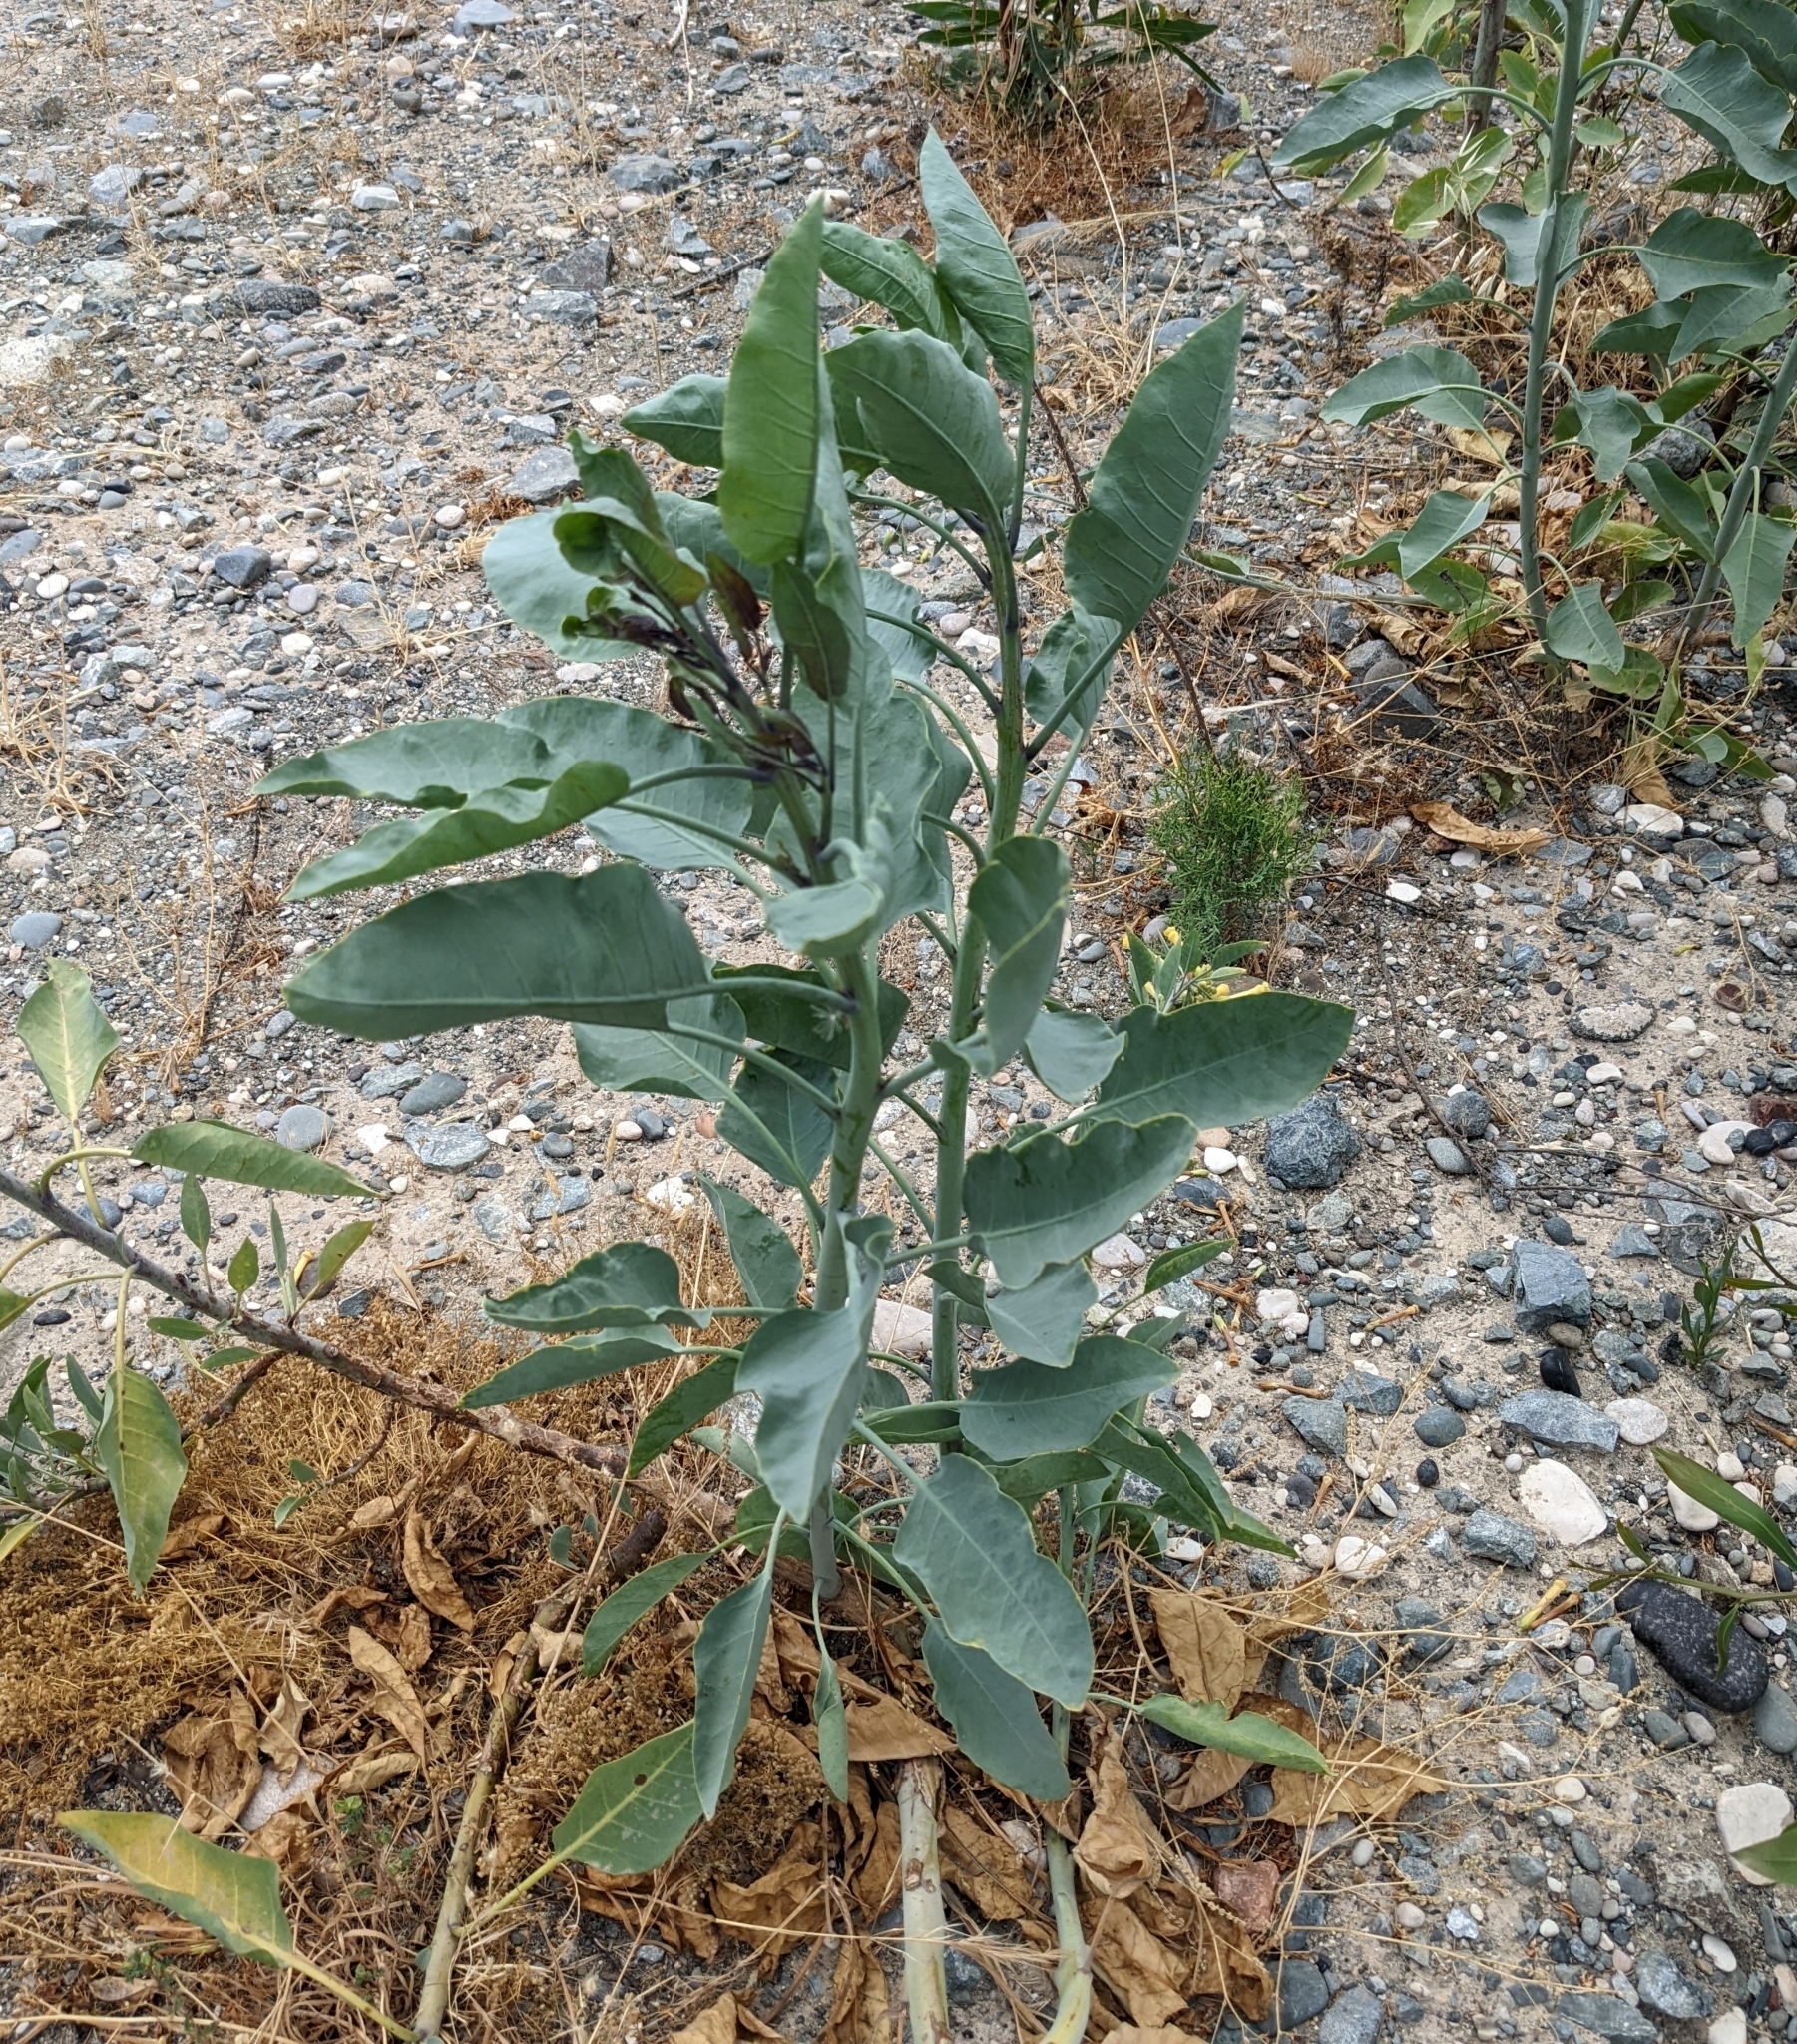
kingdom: Plantae
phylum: Tracheophyta
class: Magnoliopsida
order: Solanales
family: Solanaceae
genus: Nicotiana
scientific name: Nicotiana glauca
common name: Tree tobacco
